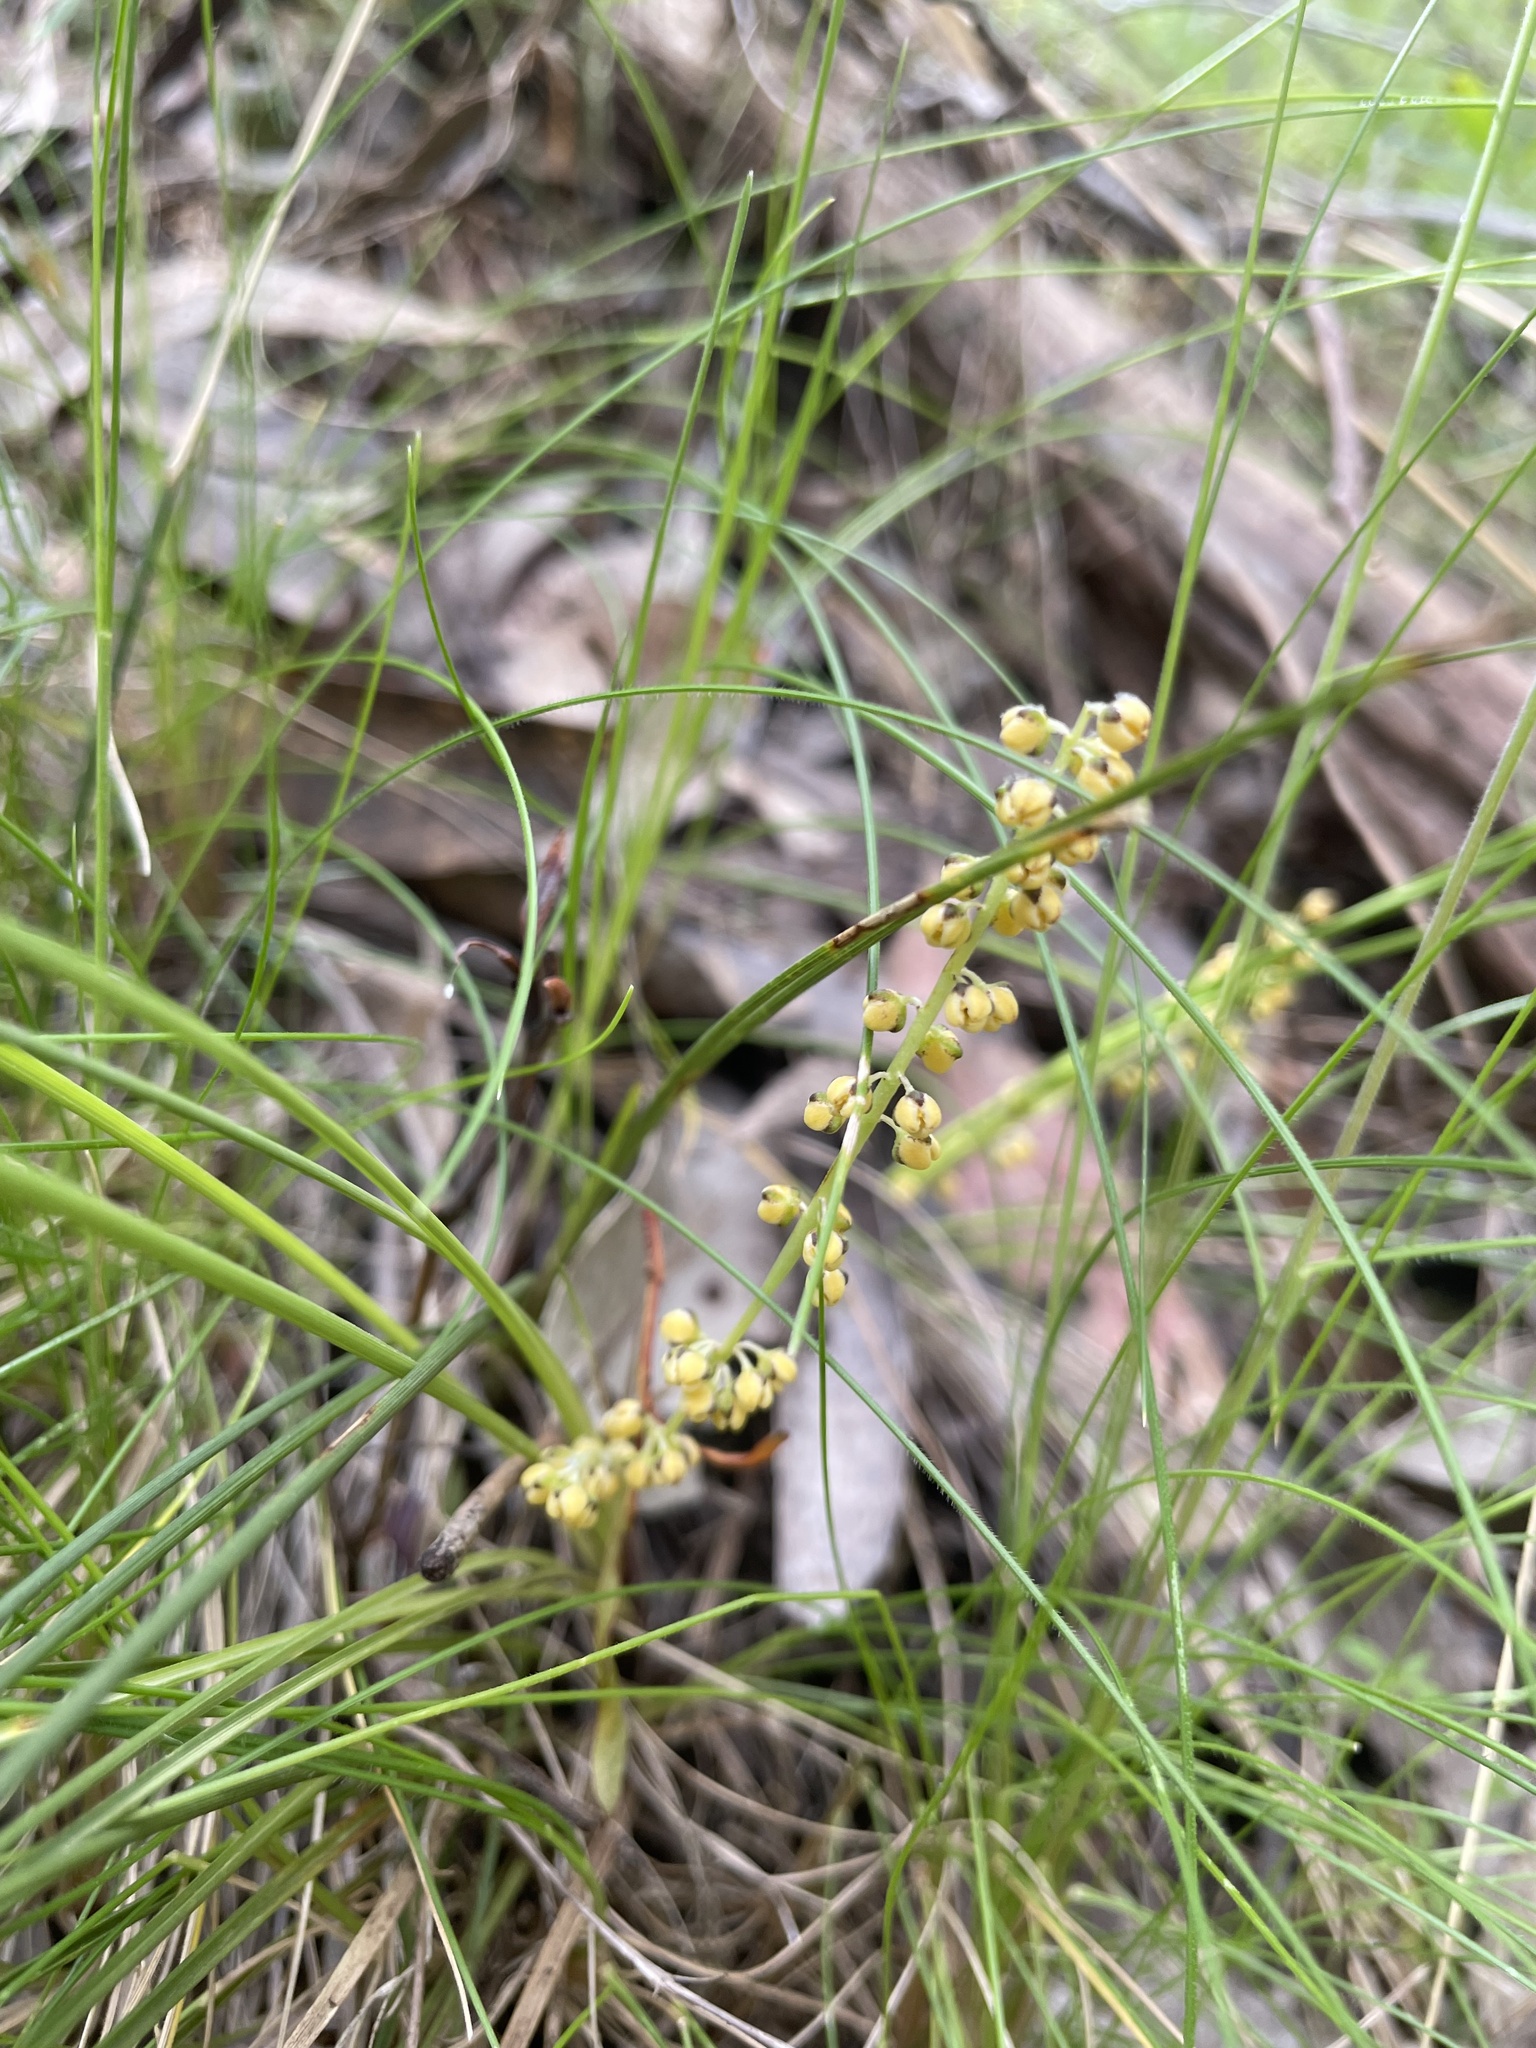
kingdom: Plantae
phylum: Tracheophyta
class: Liliopsida
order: Asparagales
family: Asparagaceae
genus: Lomandra
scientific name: Lomandra filiformis
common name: Wattle mat-rush
